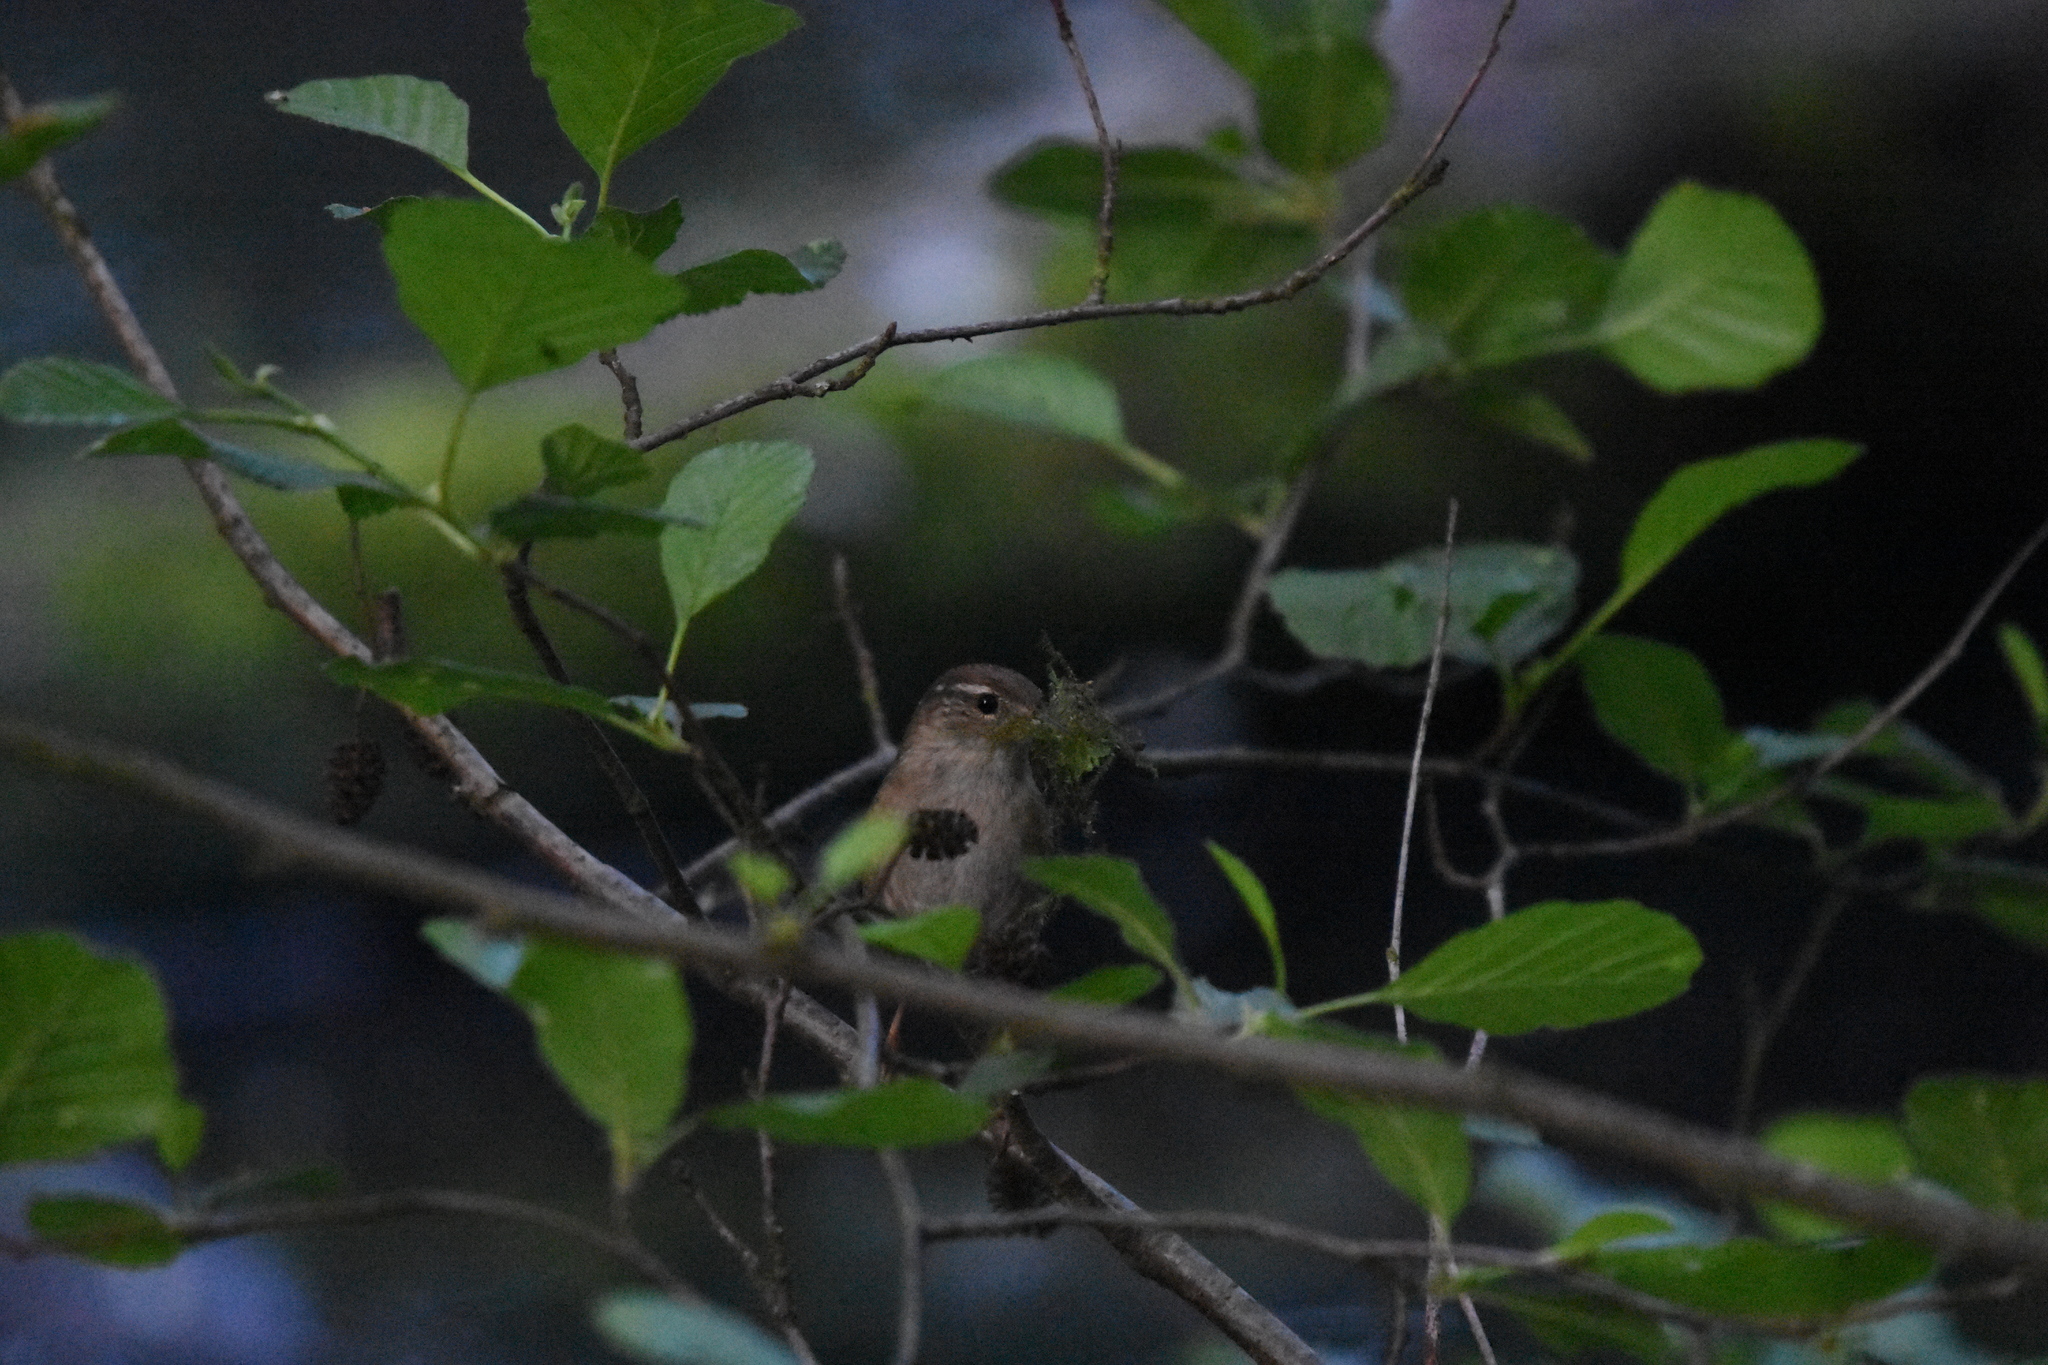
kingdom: Animalia
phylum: Chordata
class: Aves
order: Passeriformes
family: Troglodytidae
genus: Troglodytes
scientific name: Troglodytes troglodytes
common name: Eurasian wren
